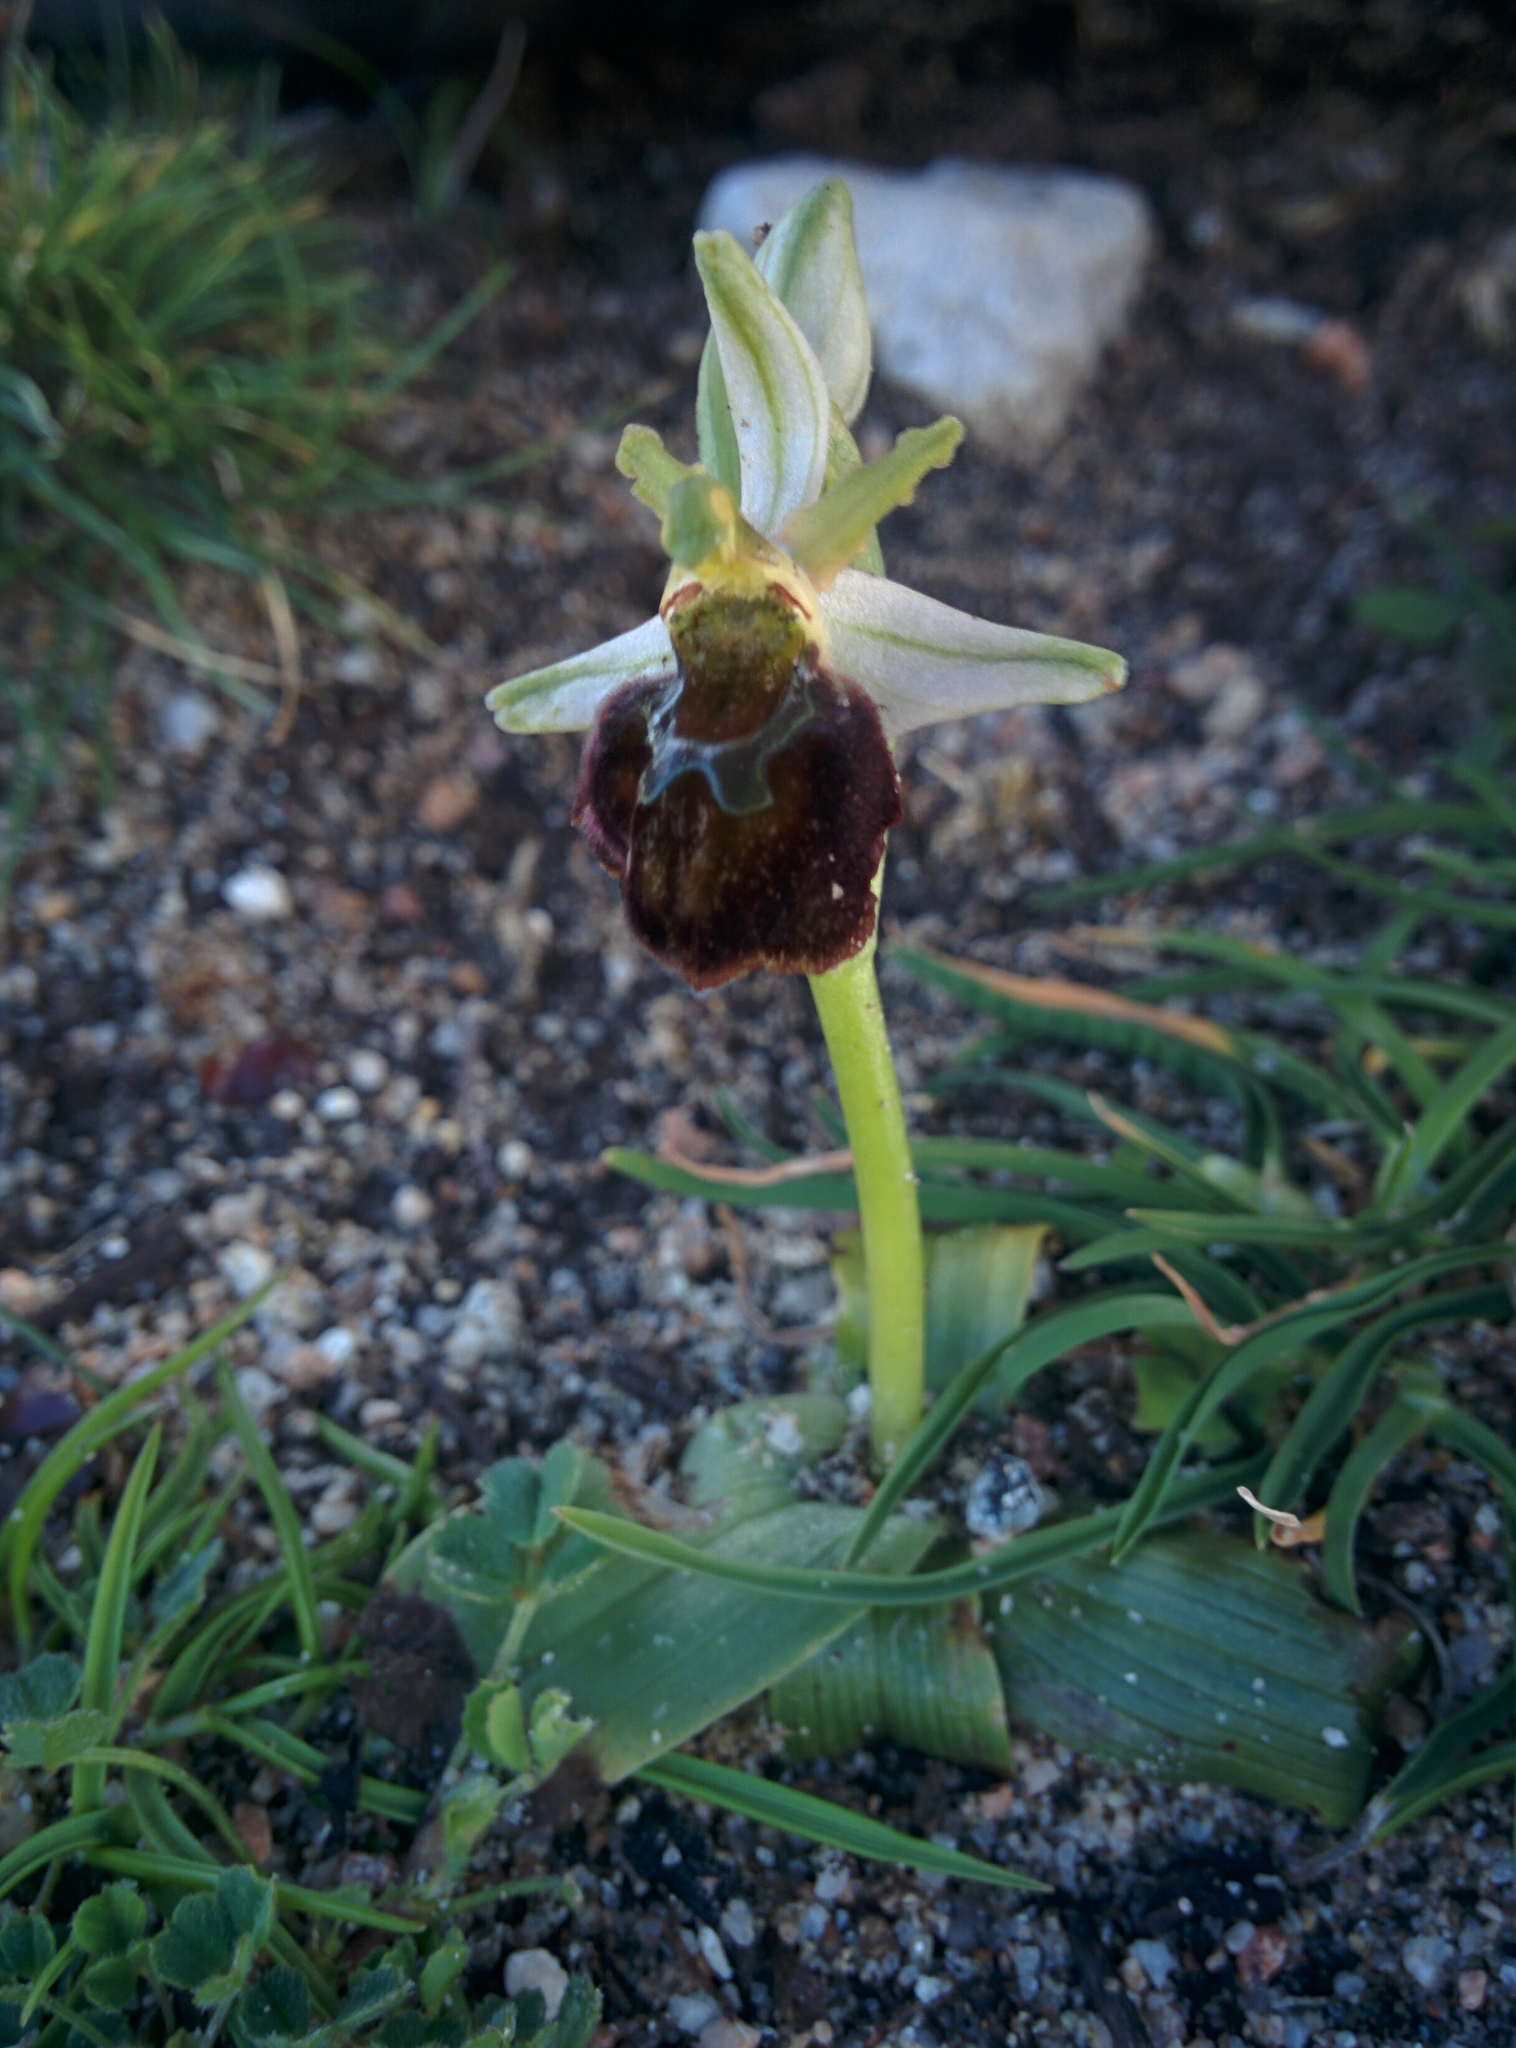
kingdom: Plantae
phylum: Tracheophyta
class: Liliopsida
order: Asparagales
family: Orchidaceae
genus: Ophrys
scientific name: Ophrys sphegodes
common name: Early spider-orchid
